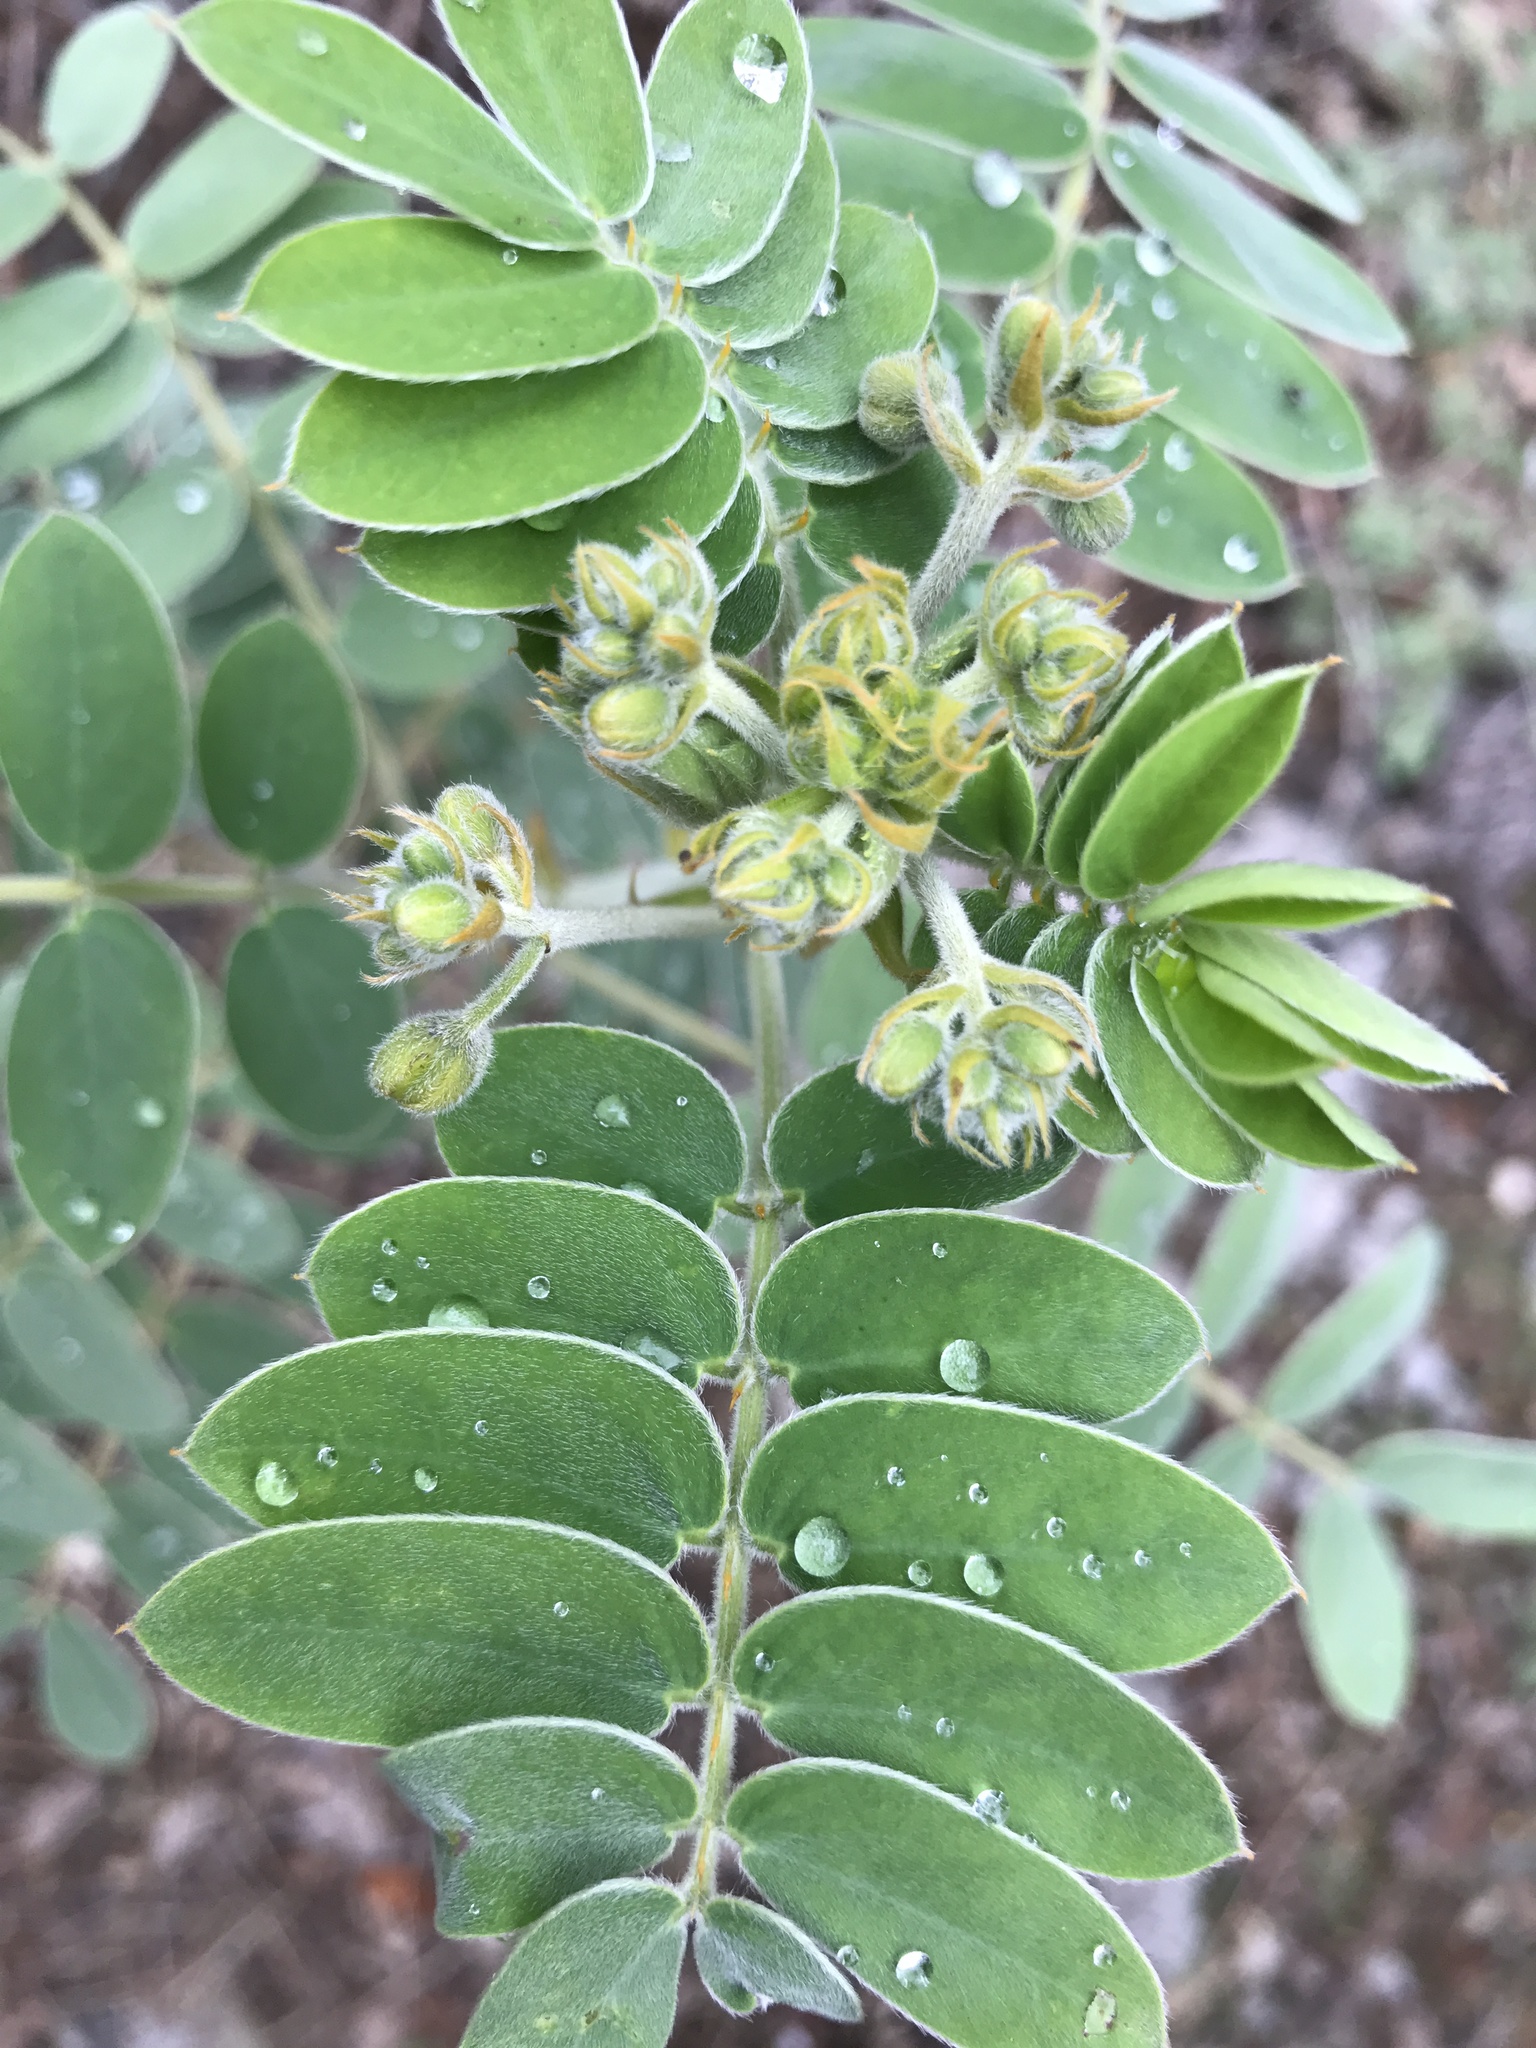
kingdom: Plantae
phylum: Tracheophyta
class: Magnoliopsida
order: Fabales
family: Fabaceae
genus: Senna
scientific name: Senna lindheimeriana
